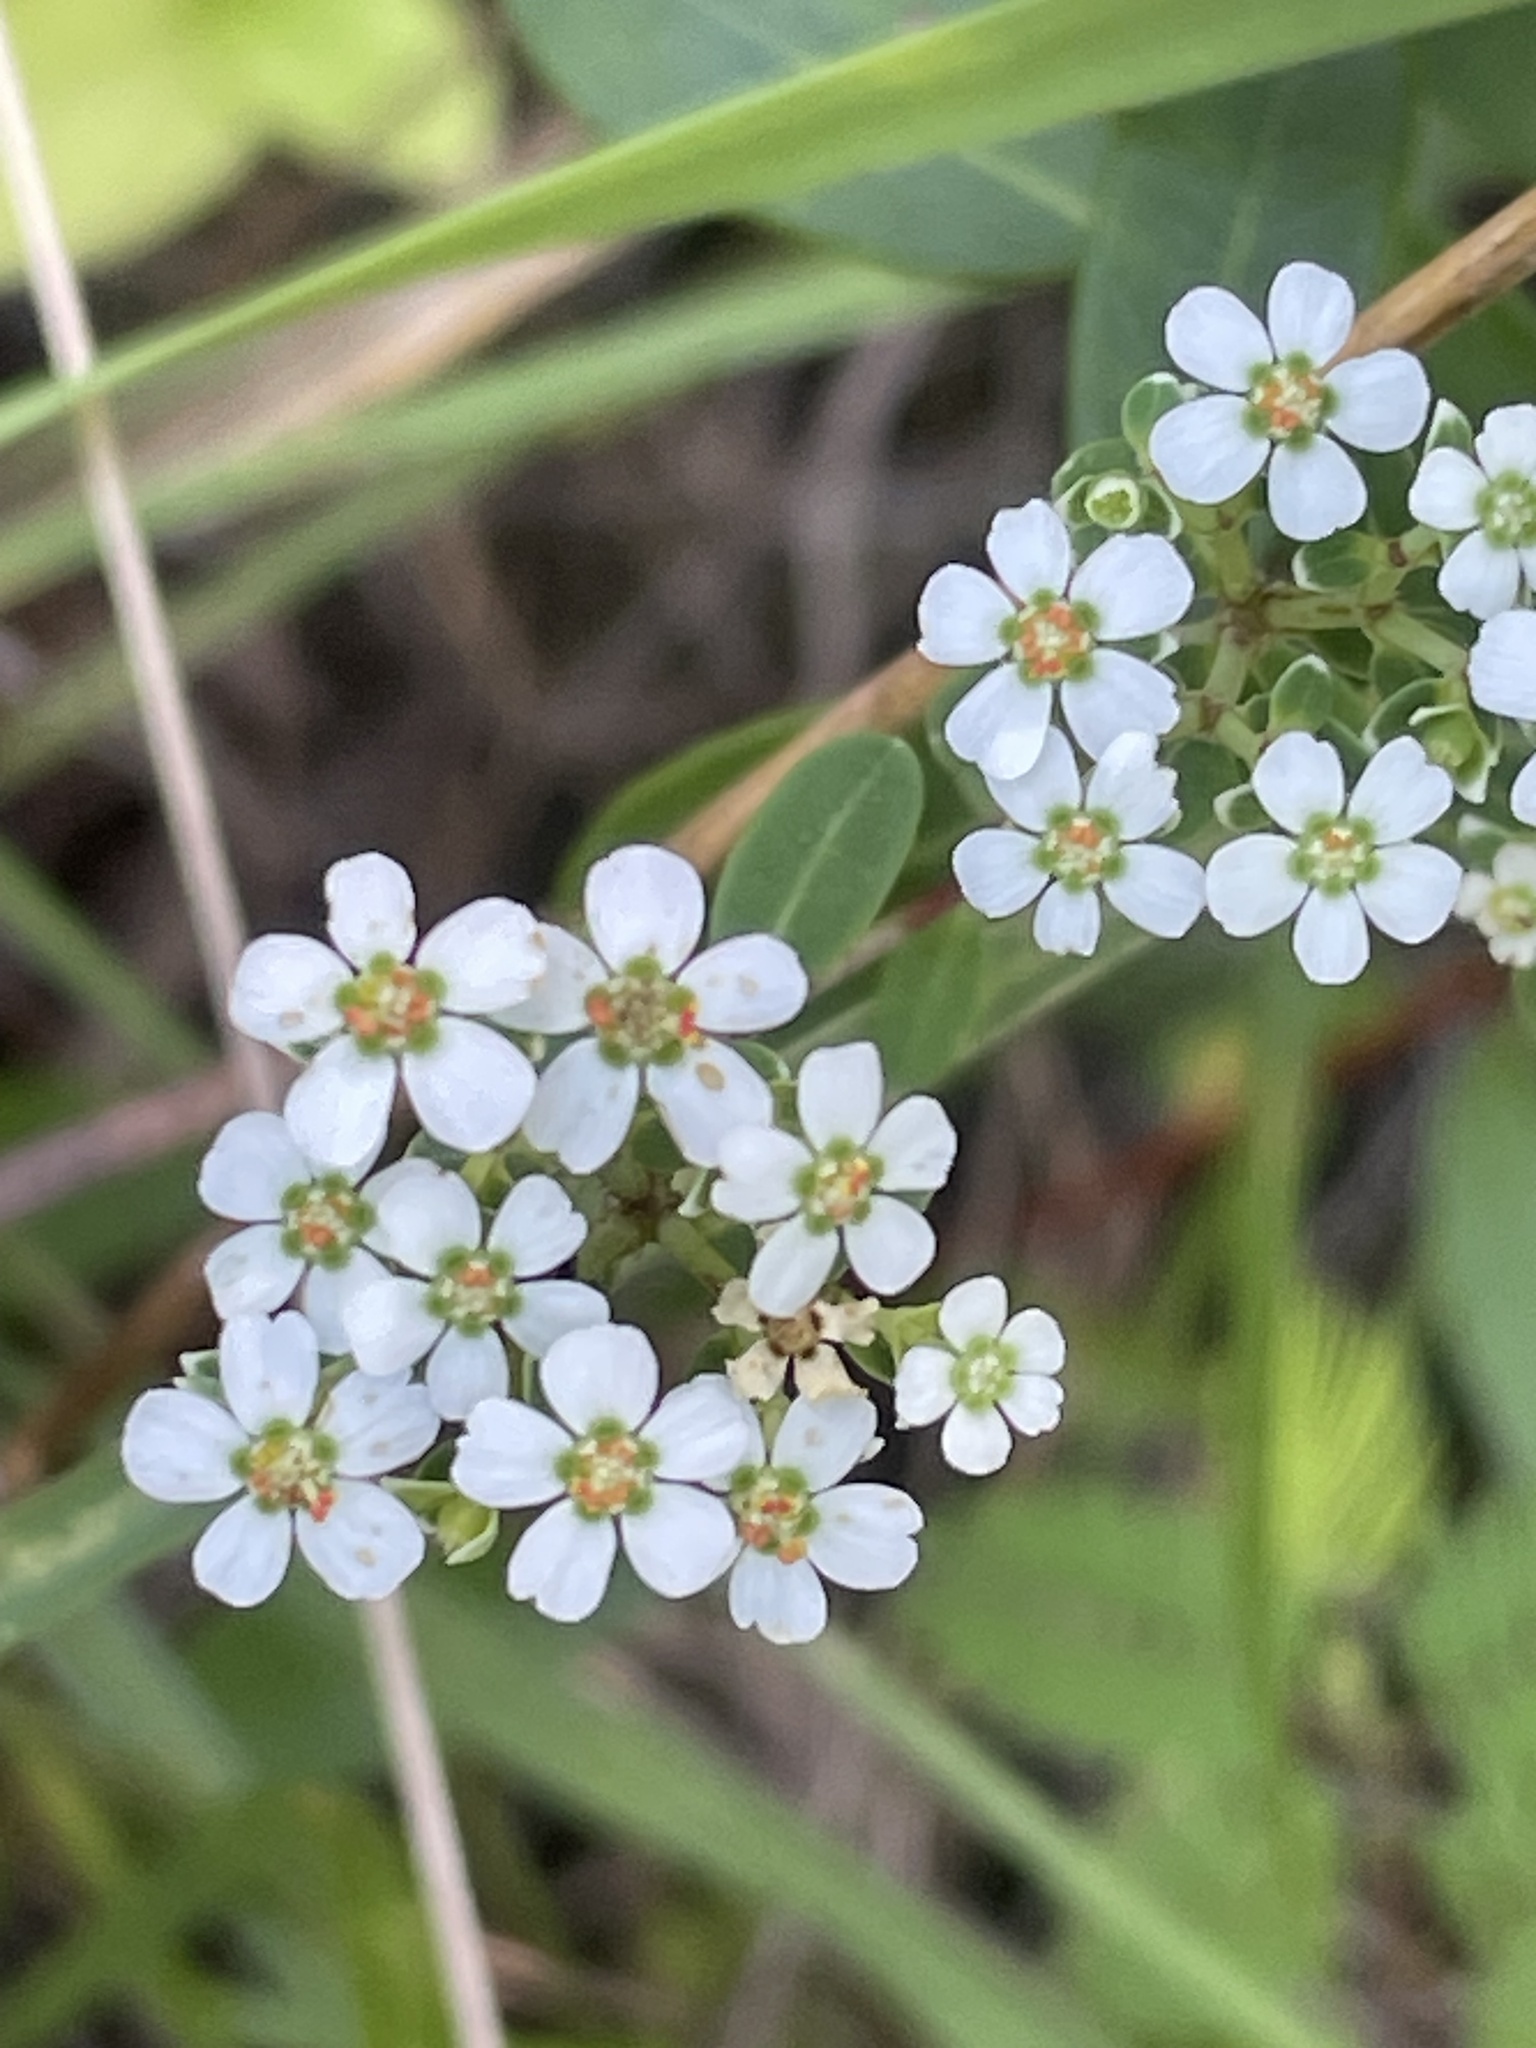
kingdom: Plantae
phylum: Tracheophyta
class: Magnoliopsida
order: Malpighiales
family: Euphorbiaceae
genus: Euphorbia
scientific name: Euphorbia corollata
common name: Flowering spurge
